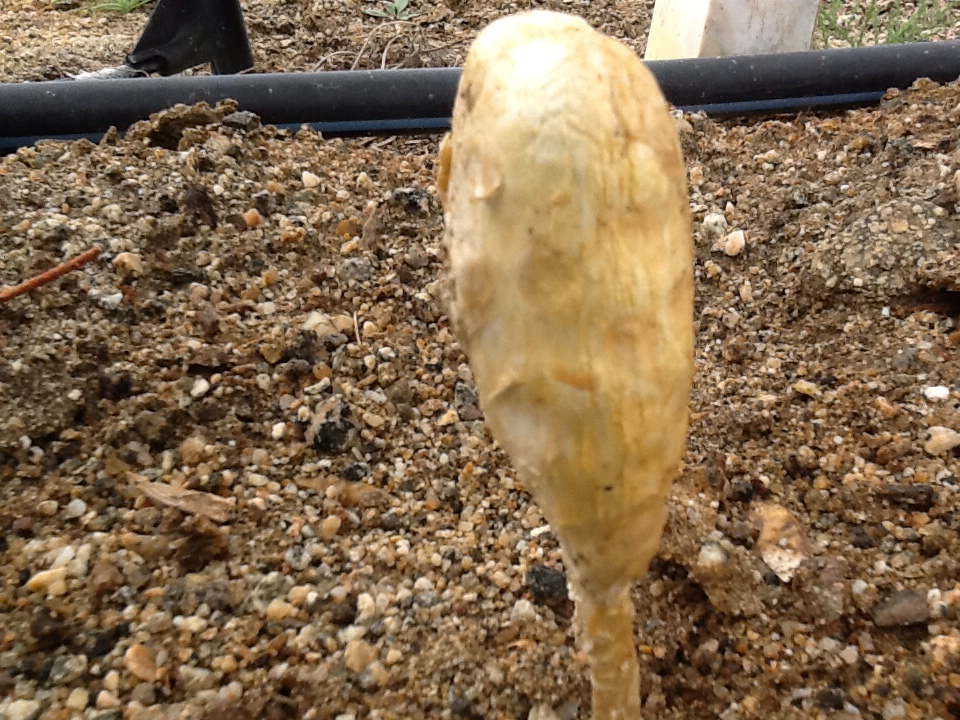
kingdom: Fungi
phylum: Basidiomycota
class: Agaricomycetes
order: Agaricales
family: Agaricaceae
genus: Podaxis
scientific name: Podaxis pistillaris
